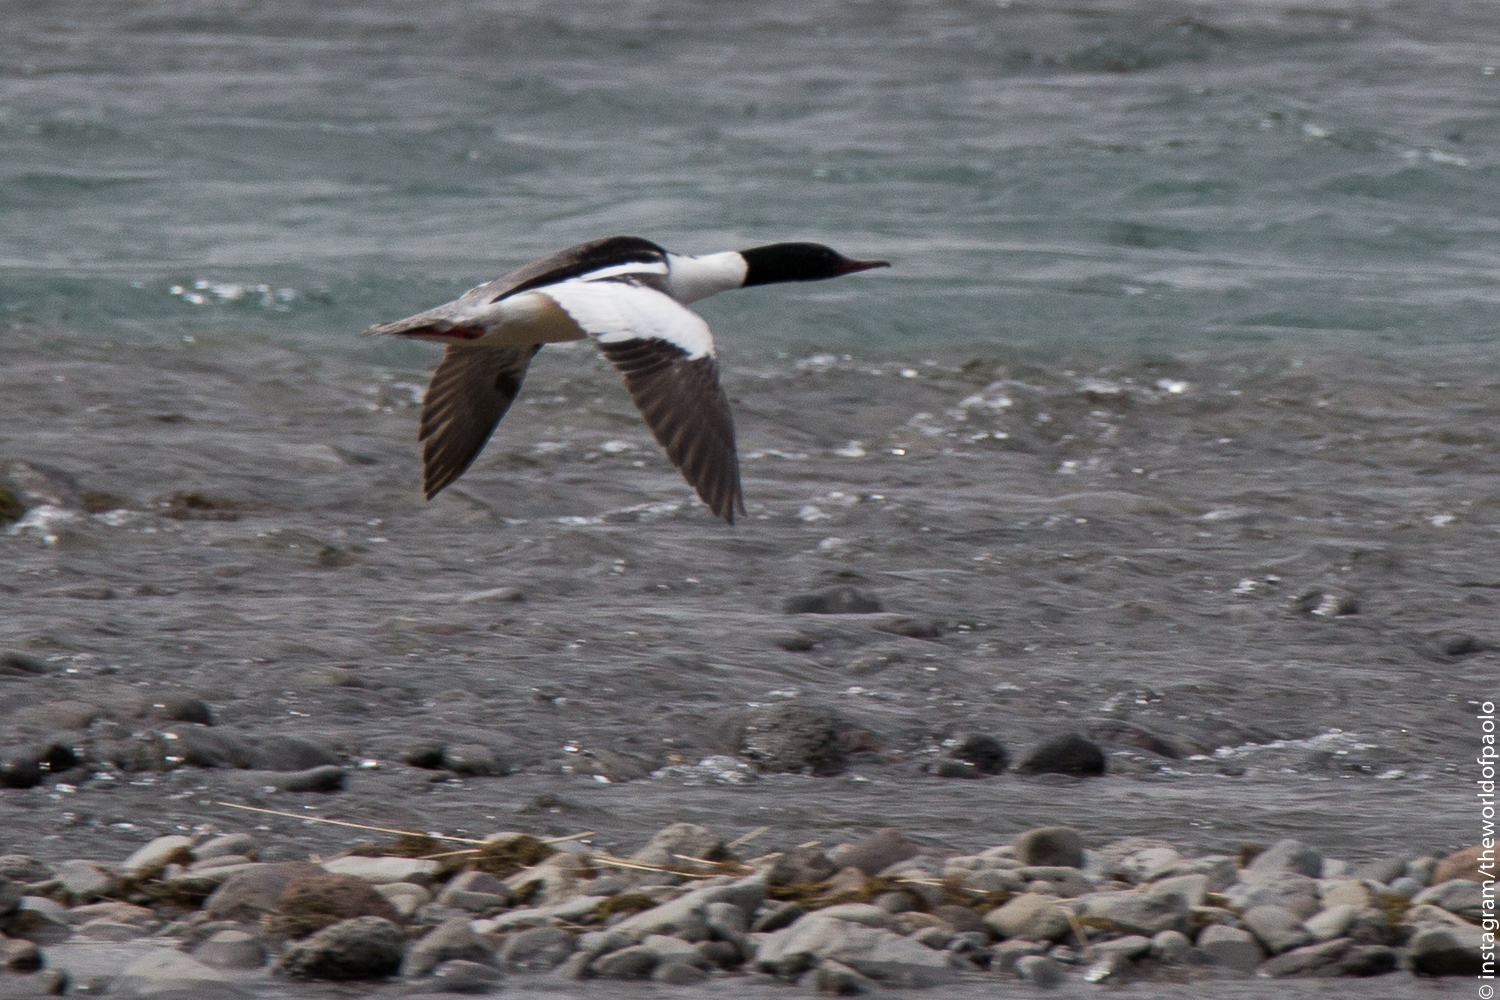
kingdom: Animalia
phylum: Chordata
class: Aves
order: Anseriformes
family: Anatidae
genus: Mergus
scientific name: Mergus merganser
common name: Common merganser
